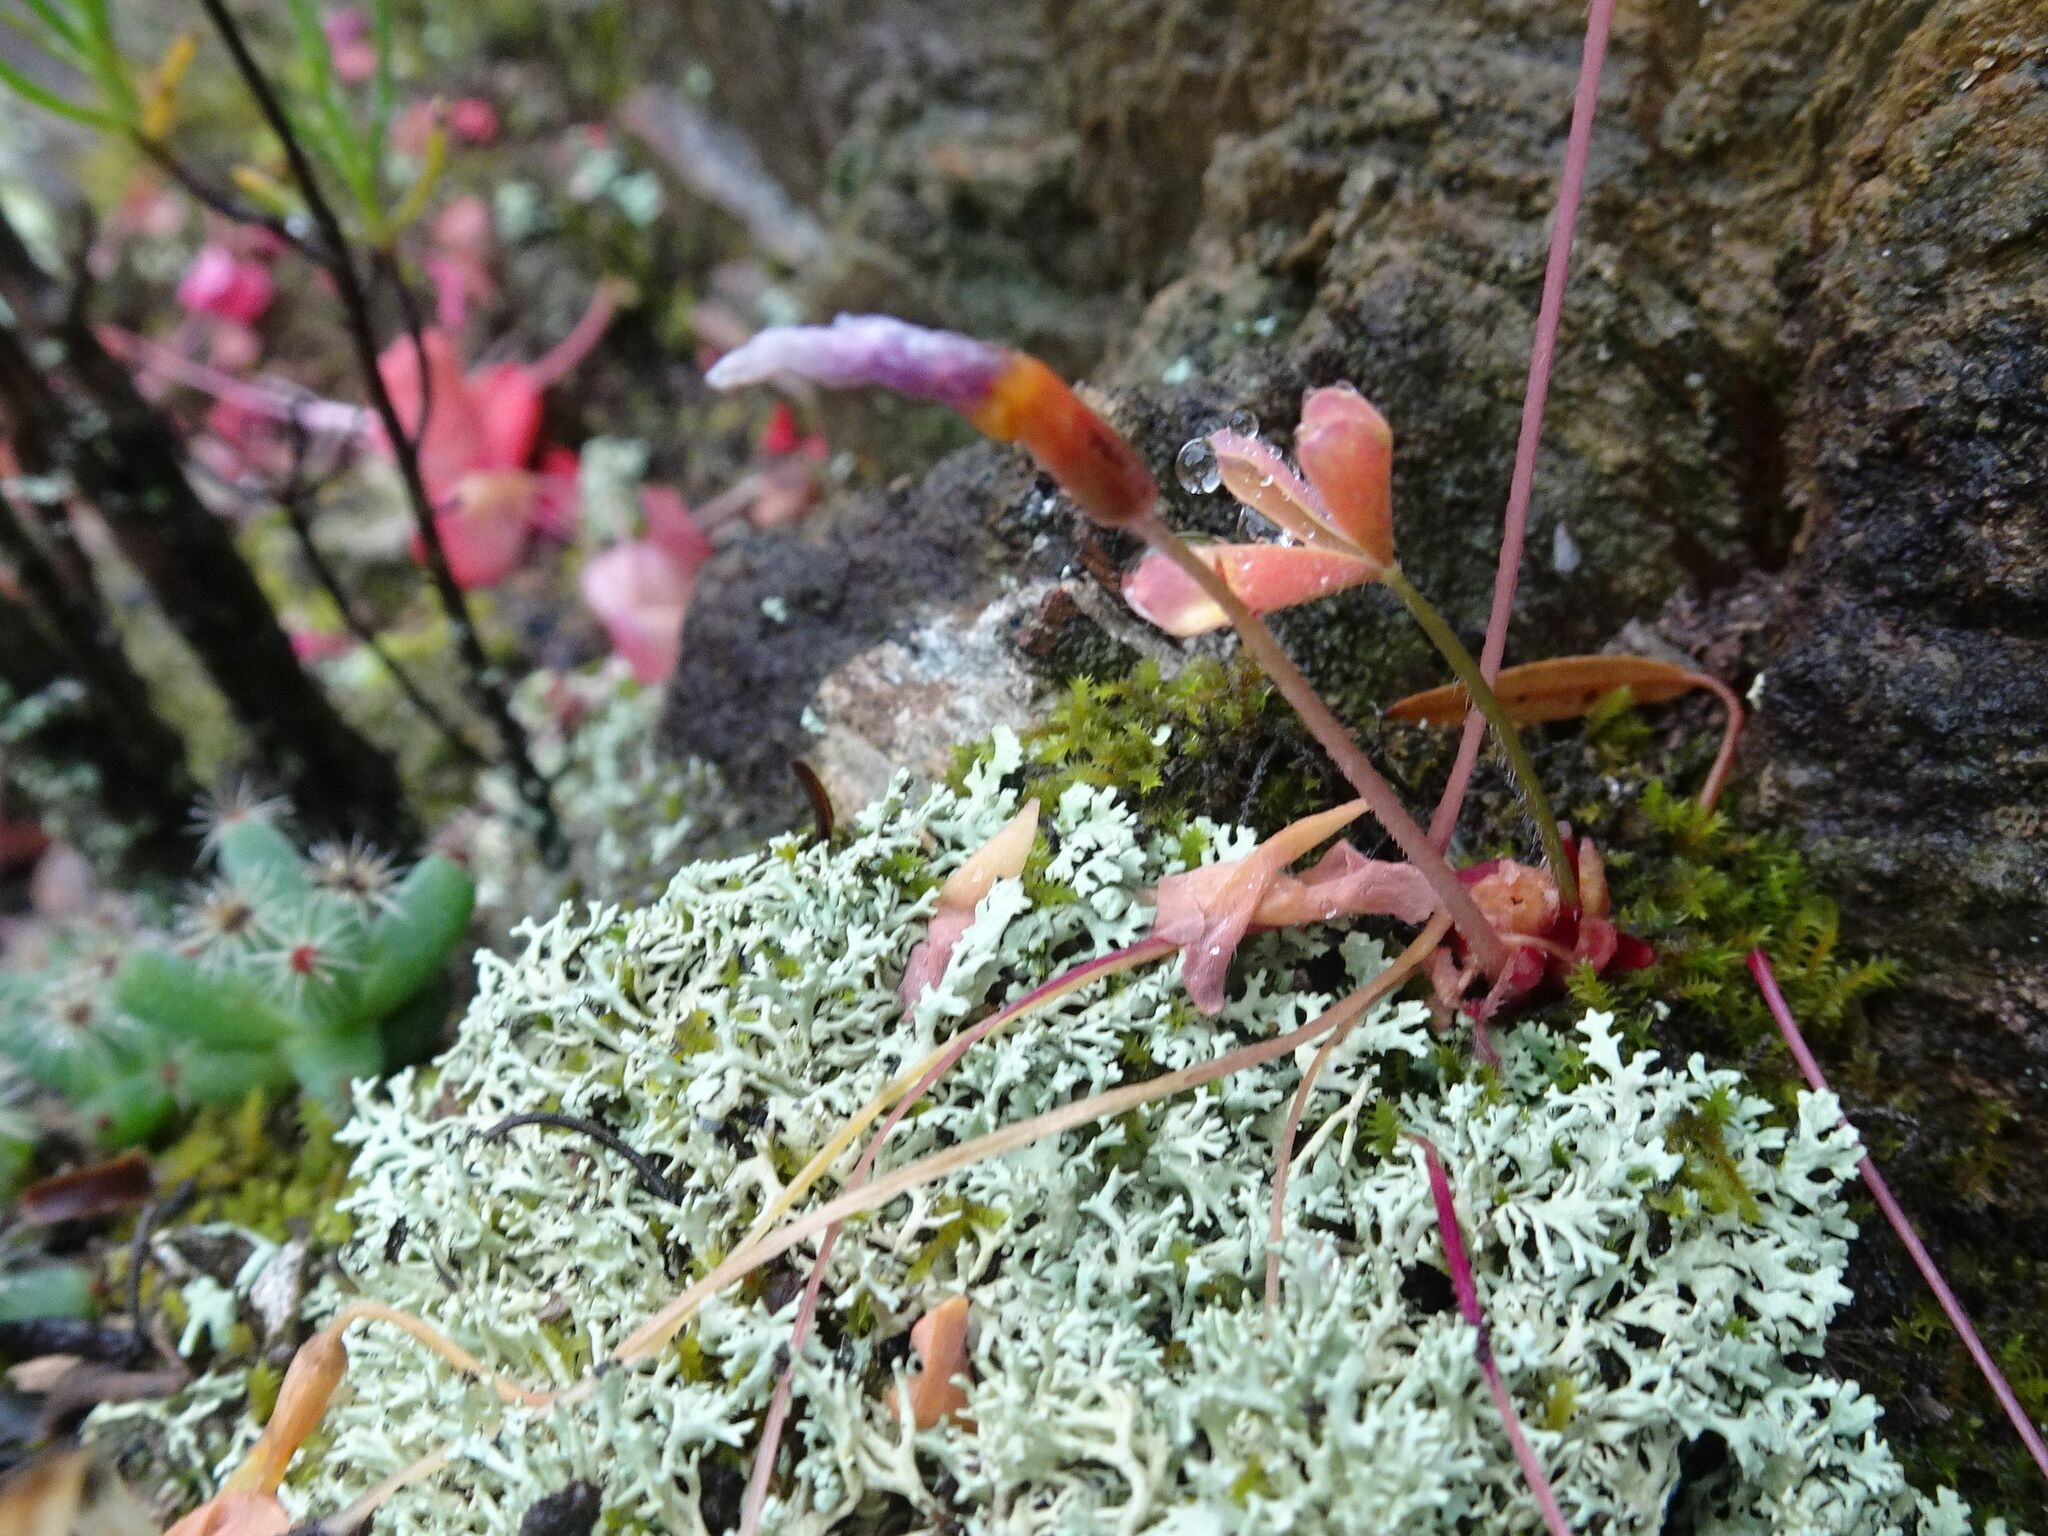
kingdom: Plantae
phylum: Tracheophyta
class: Magnoliopsida
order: Oxalidales
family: Oxalidaceae
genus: Oxalis
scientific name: Oxalis obtusa
